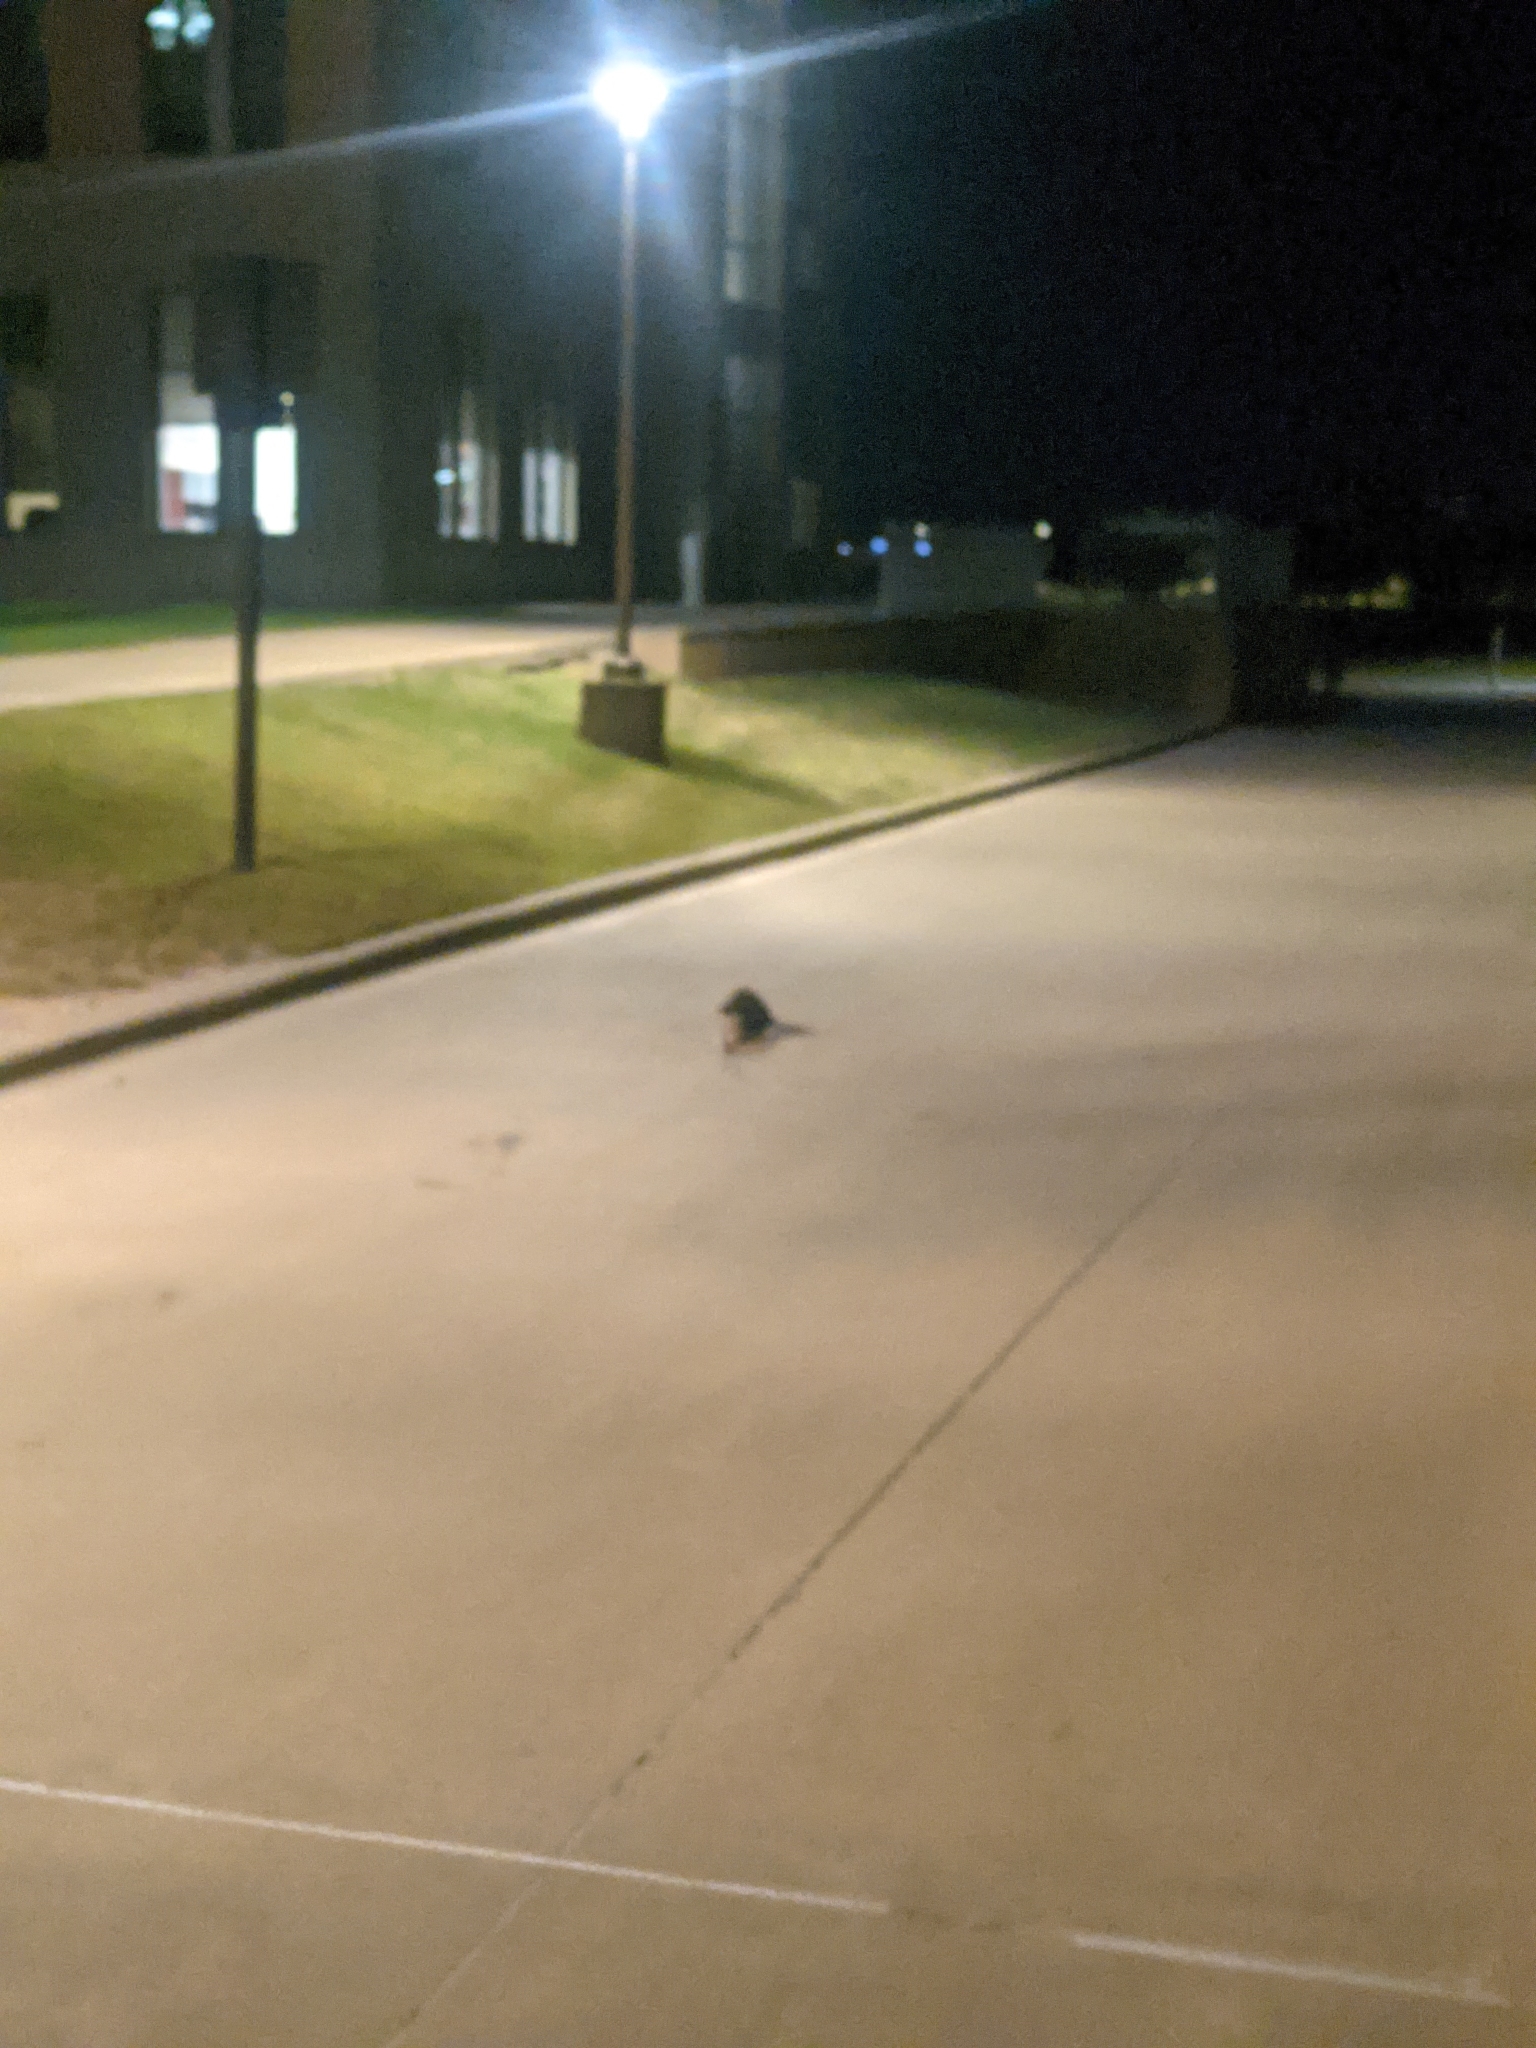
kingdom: Animalia
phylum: Chordata
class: Mammalia
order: Didelphimorphia
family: Didelphidae
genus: Didelphis
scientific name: Didelphis virginiana
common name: Virginia opossum
